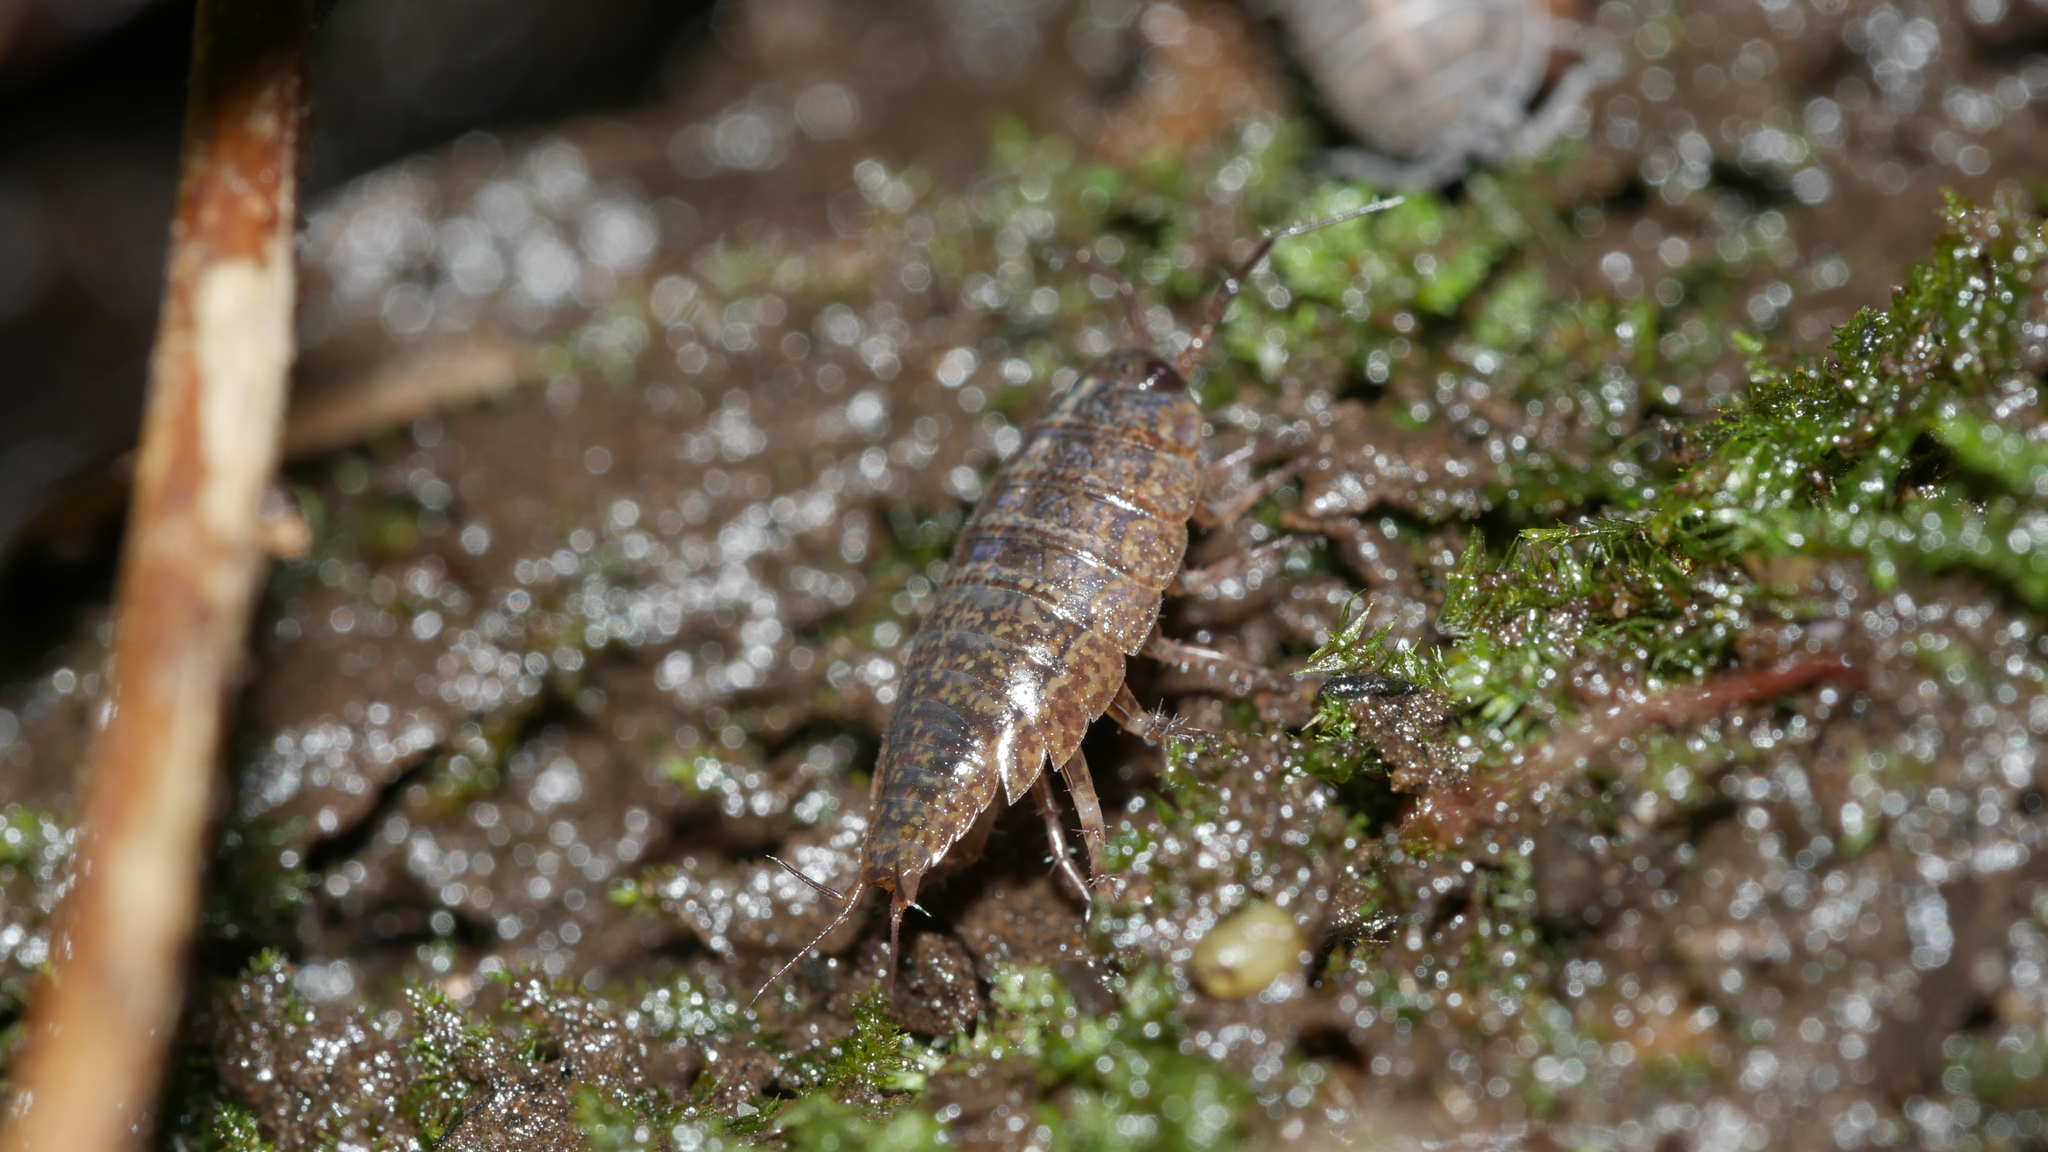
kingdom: Animalia
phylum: Arthropoda
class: Malacostraca
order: Isopoda
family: Ligiidae
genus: Ligidium
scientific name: Ligidium elrodii
